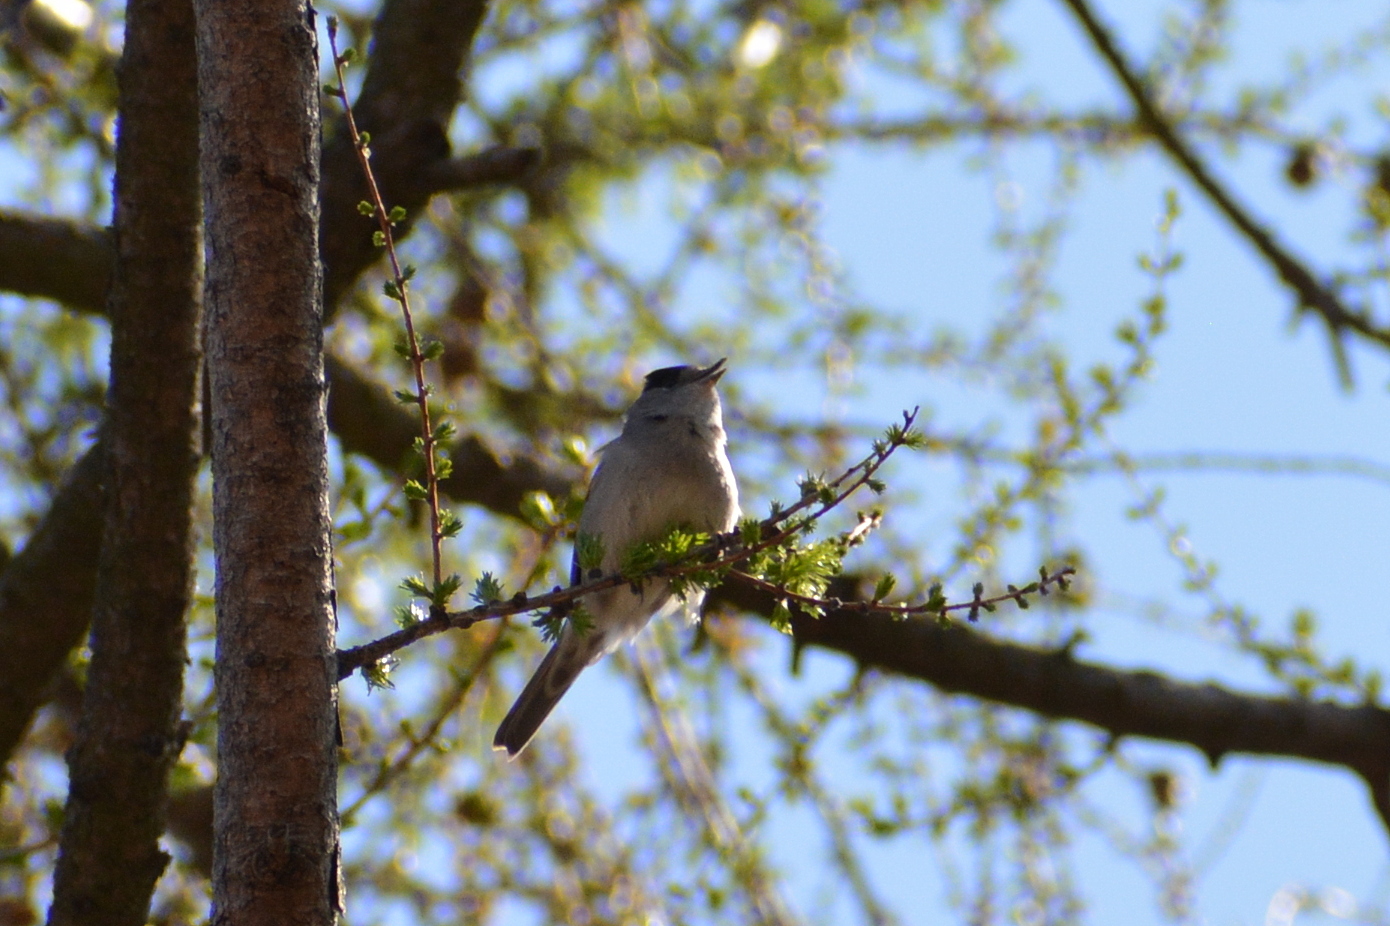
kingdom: Animalia
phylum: Chordata
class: Aves
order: Passeriformes
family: Sylviidae
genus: Sylvia
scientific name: Sylvia atricapilla
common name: Eurasian blackcap
